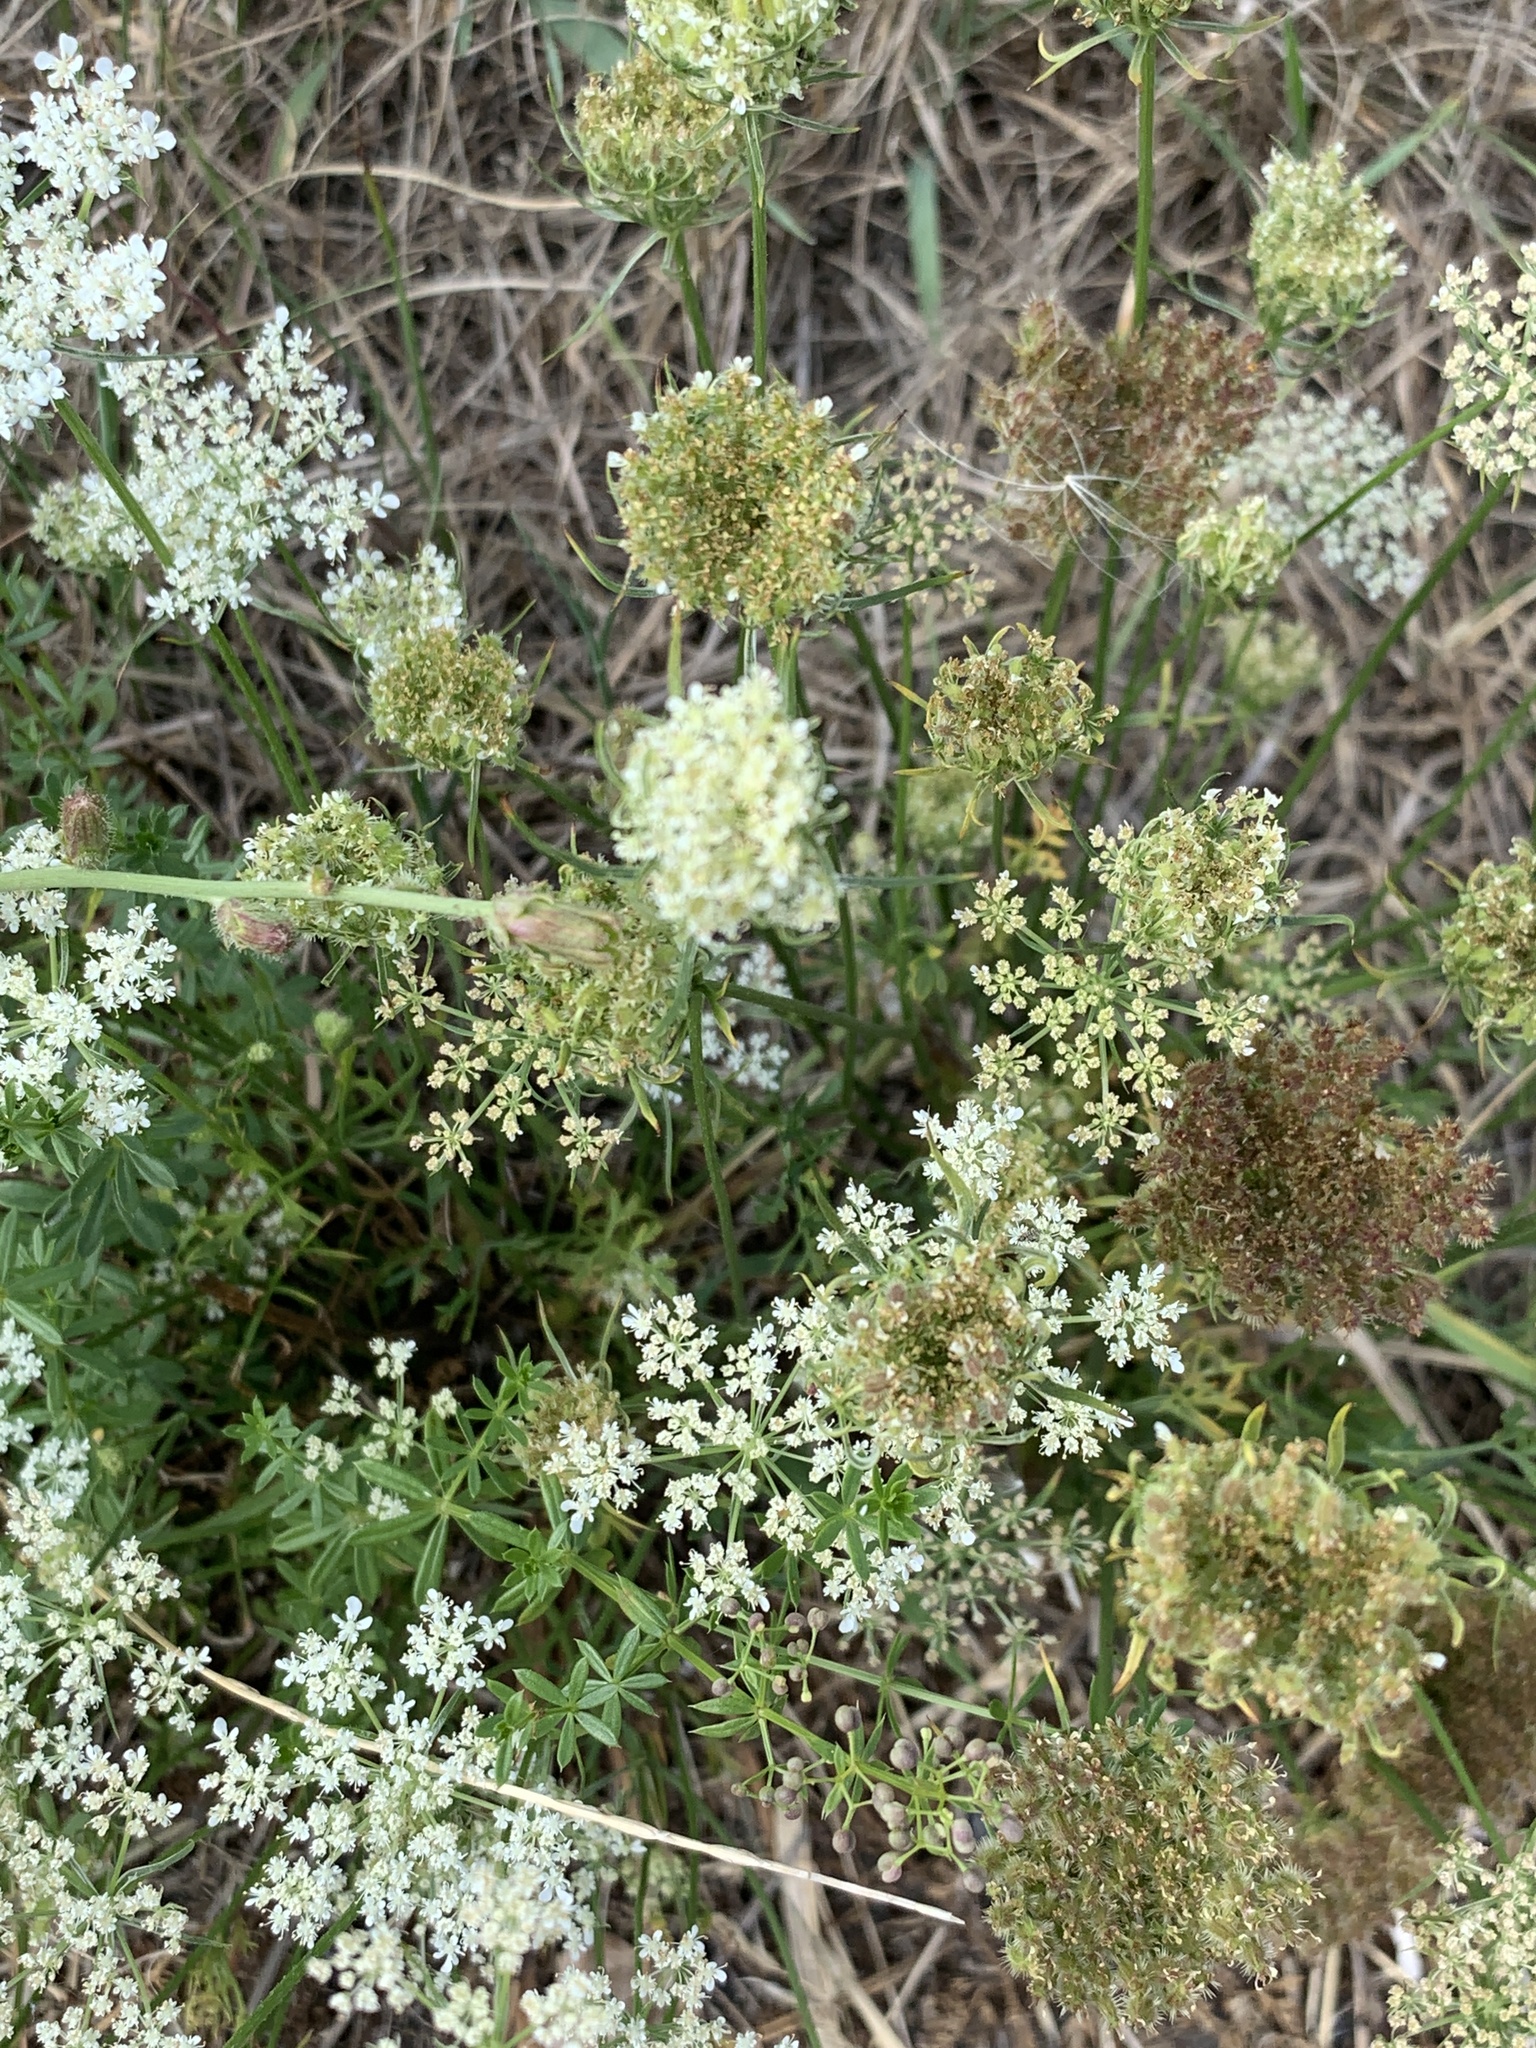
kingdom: Plantae
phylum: Tracheophyta
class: Magnoliopsida
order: Apiales
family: Apiaceae
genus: Daucus
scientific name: Daucus carota
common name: Wild carrot
